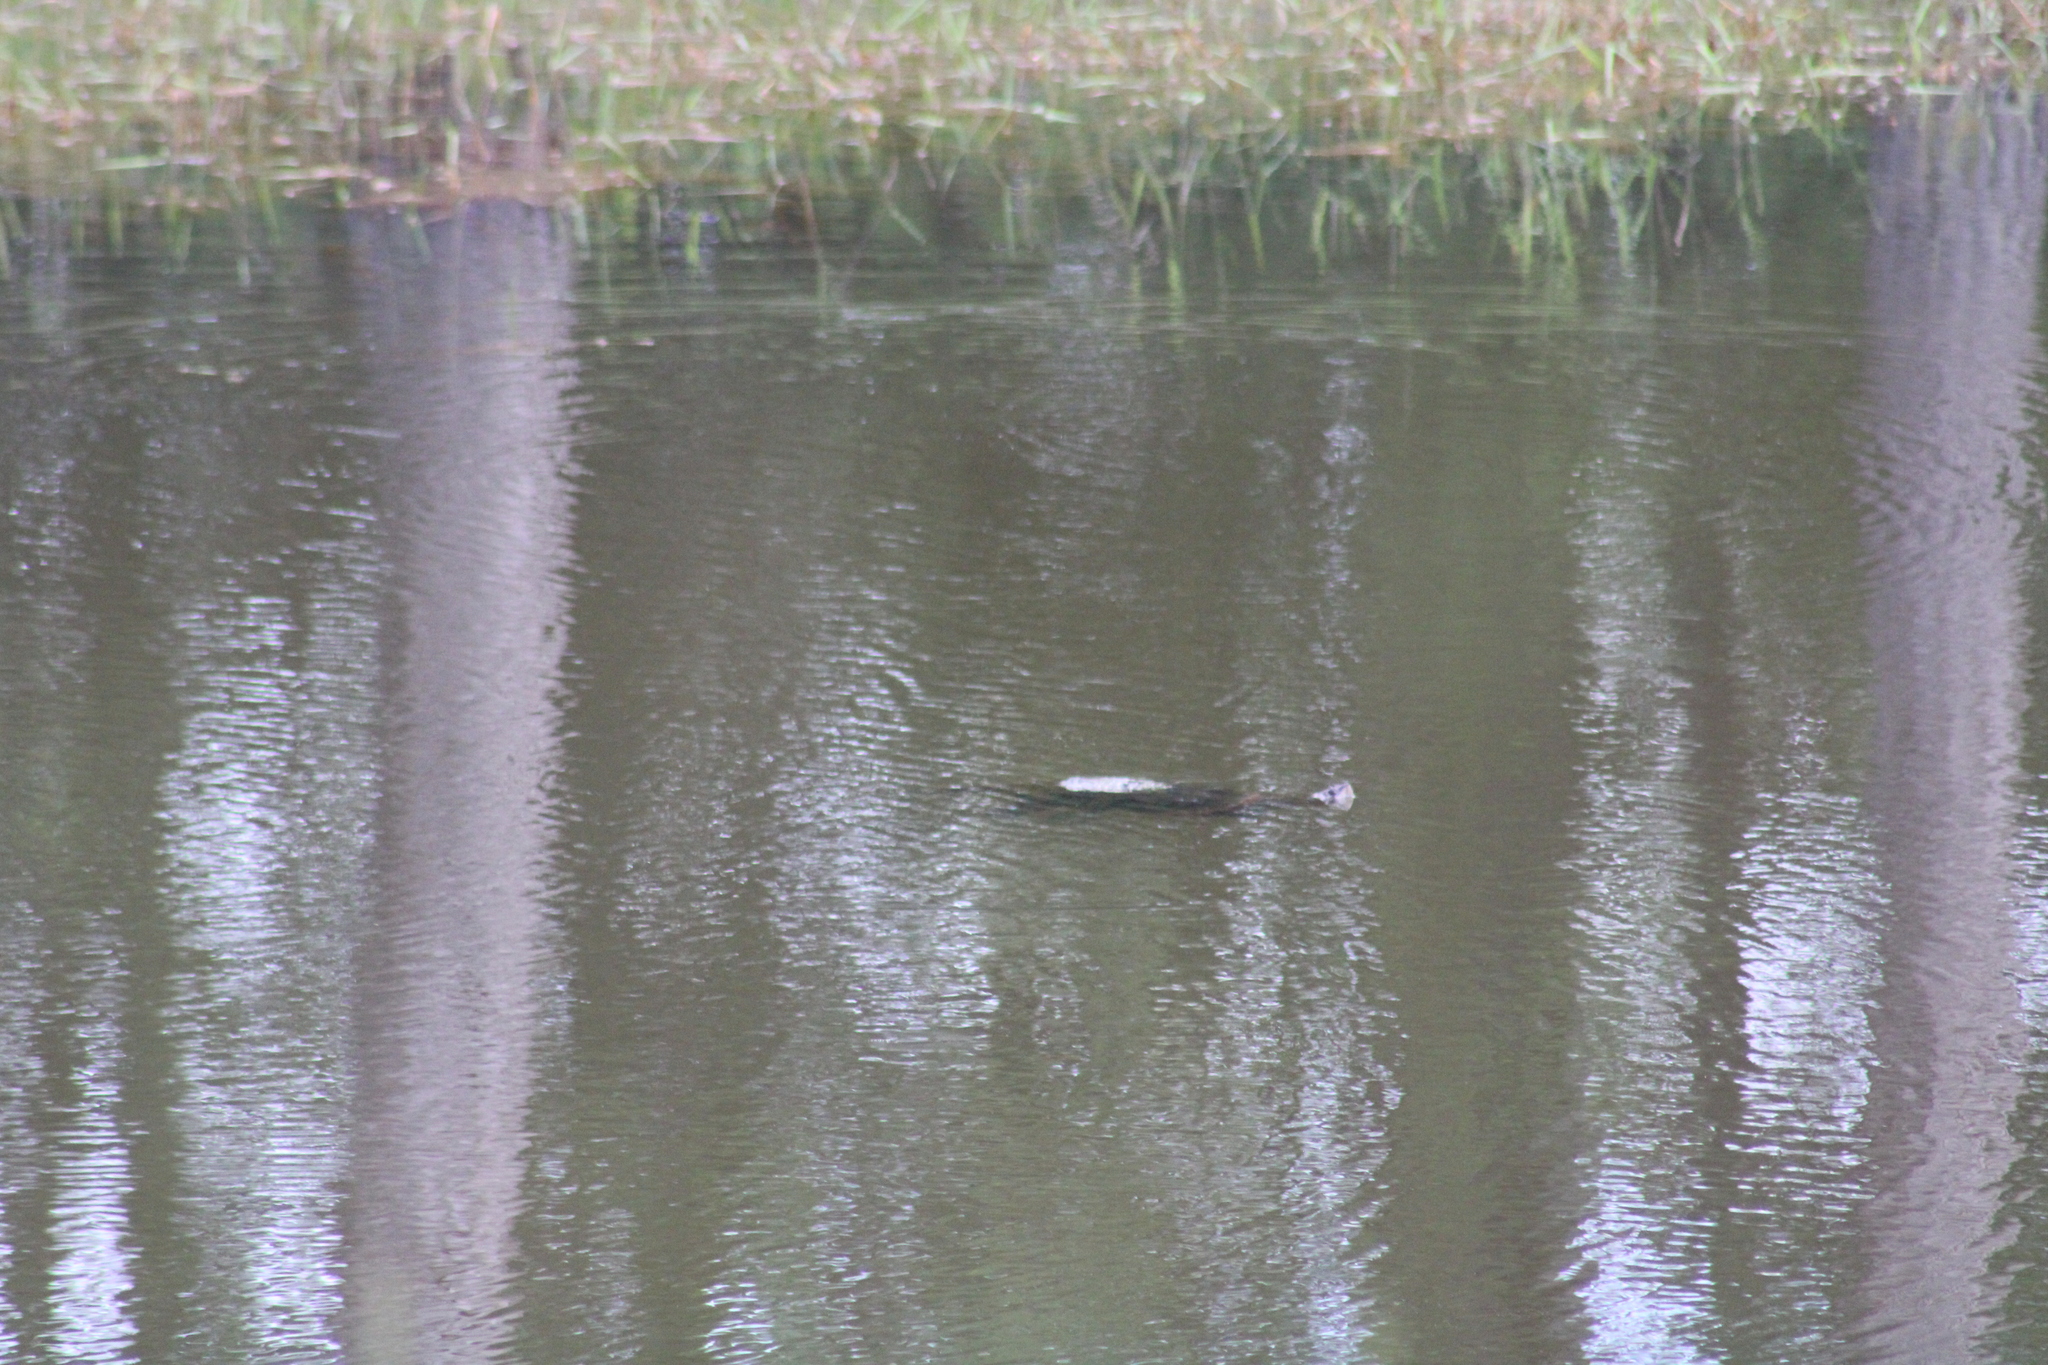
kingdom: Animalia
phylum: Chordata
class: Testudines
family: Chelydridae
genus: Chelydra
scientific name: Chelydra serpentina
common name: Common snapping turtle
